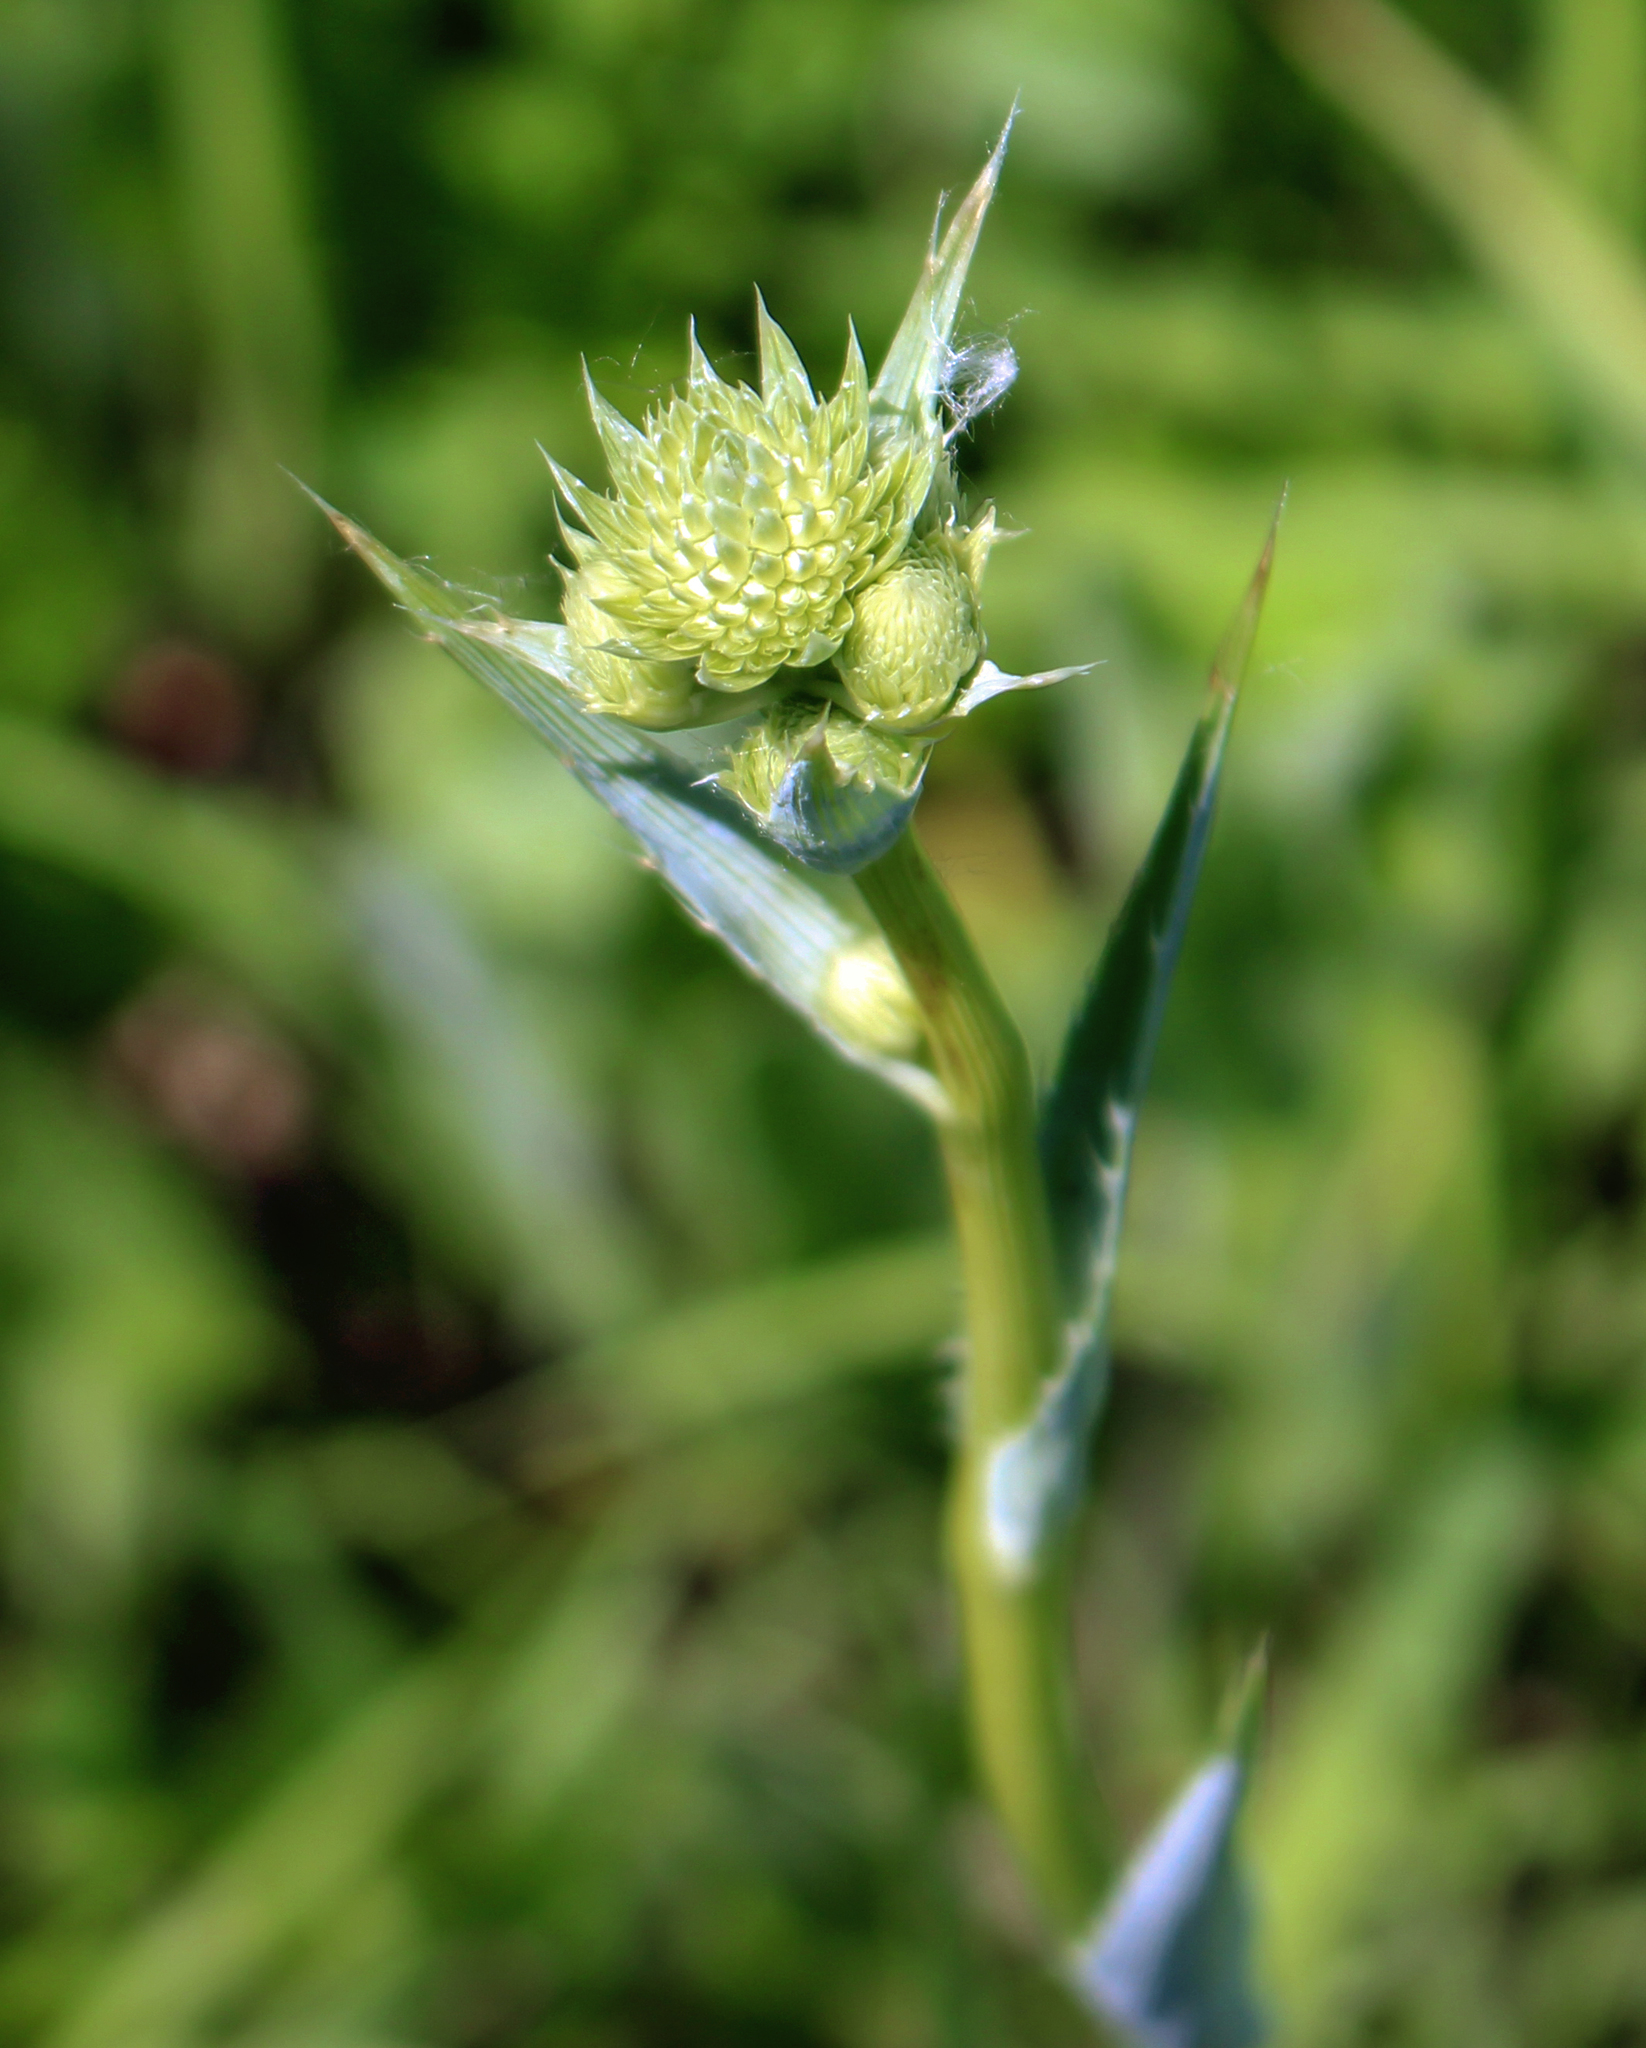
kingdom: Plantae
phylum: Tracheophyta
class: Magnoliopsida
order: Apiales
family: Apiaceae
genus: Eryngium
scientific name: Eryngium yuccifolium
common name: Button eryngo
